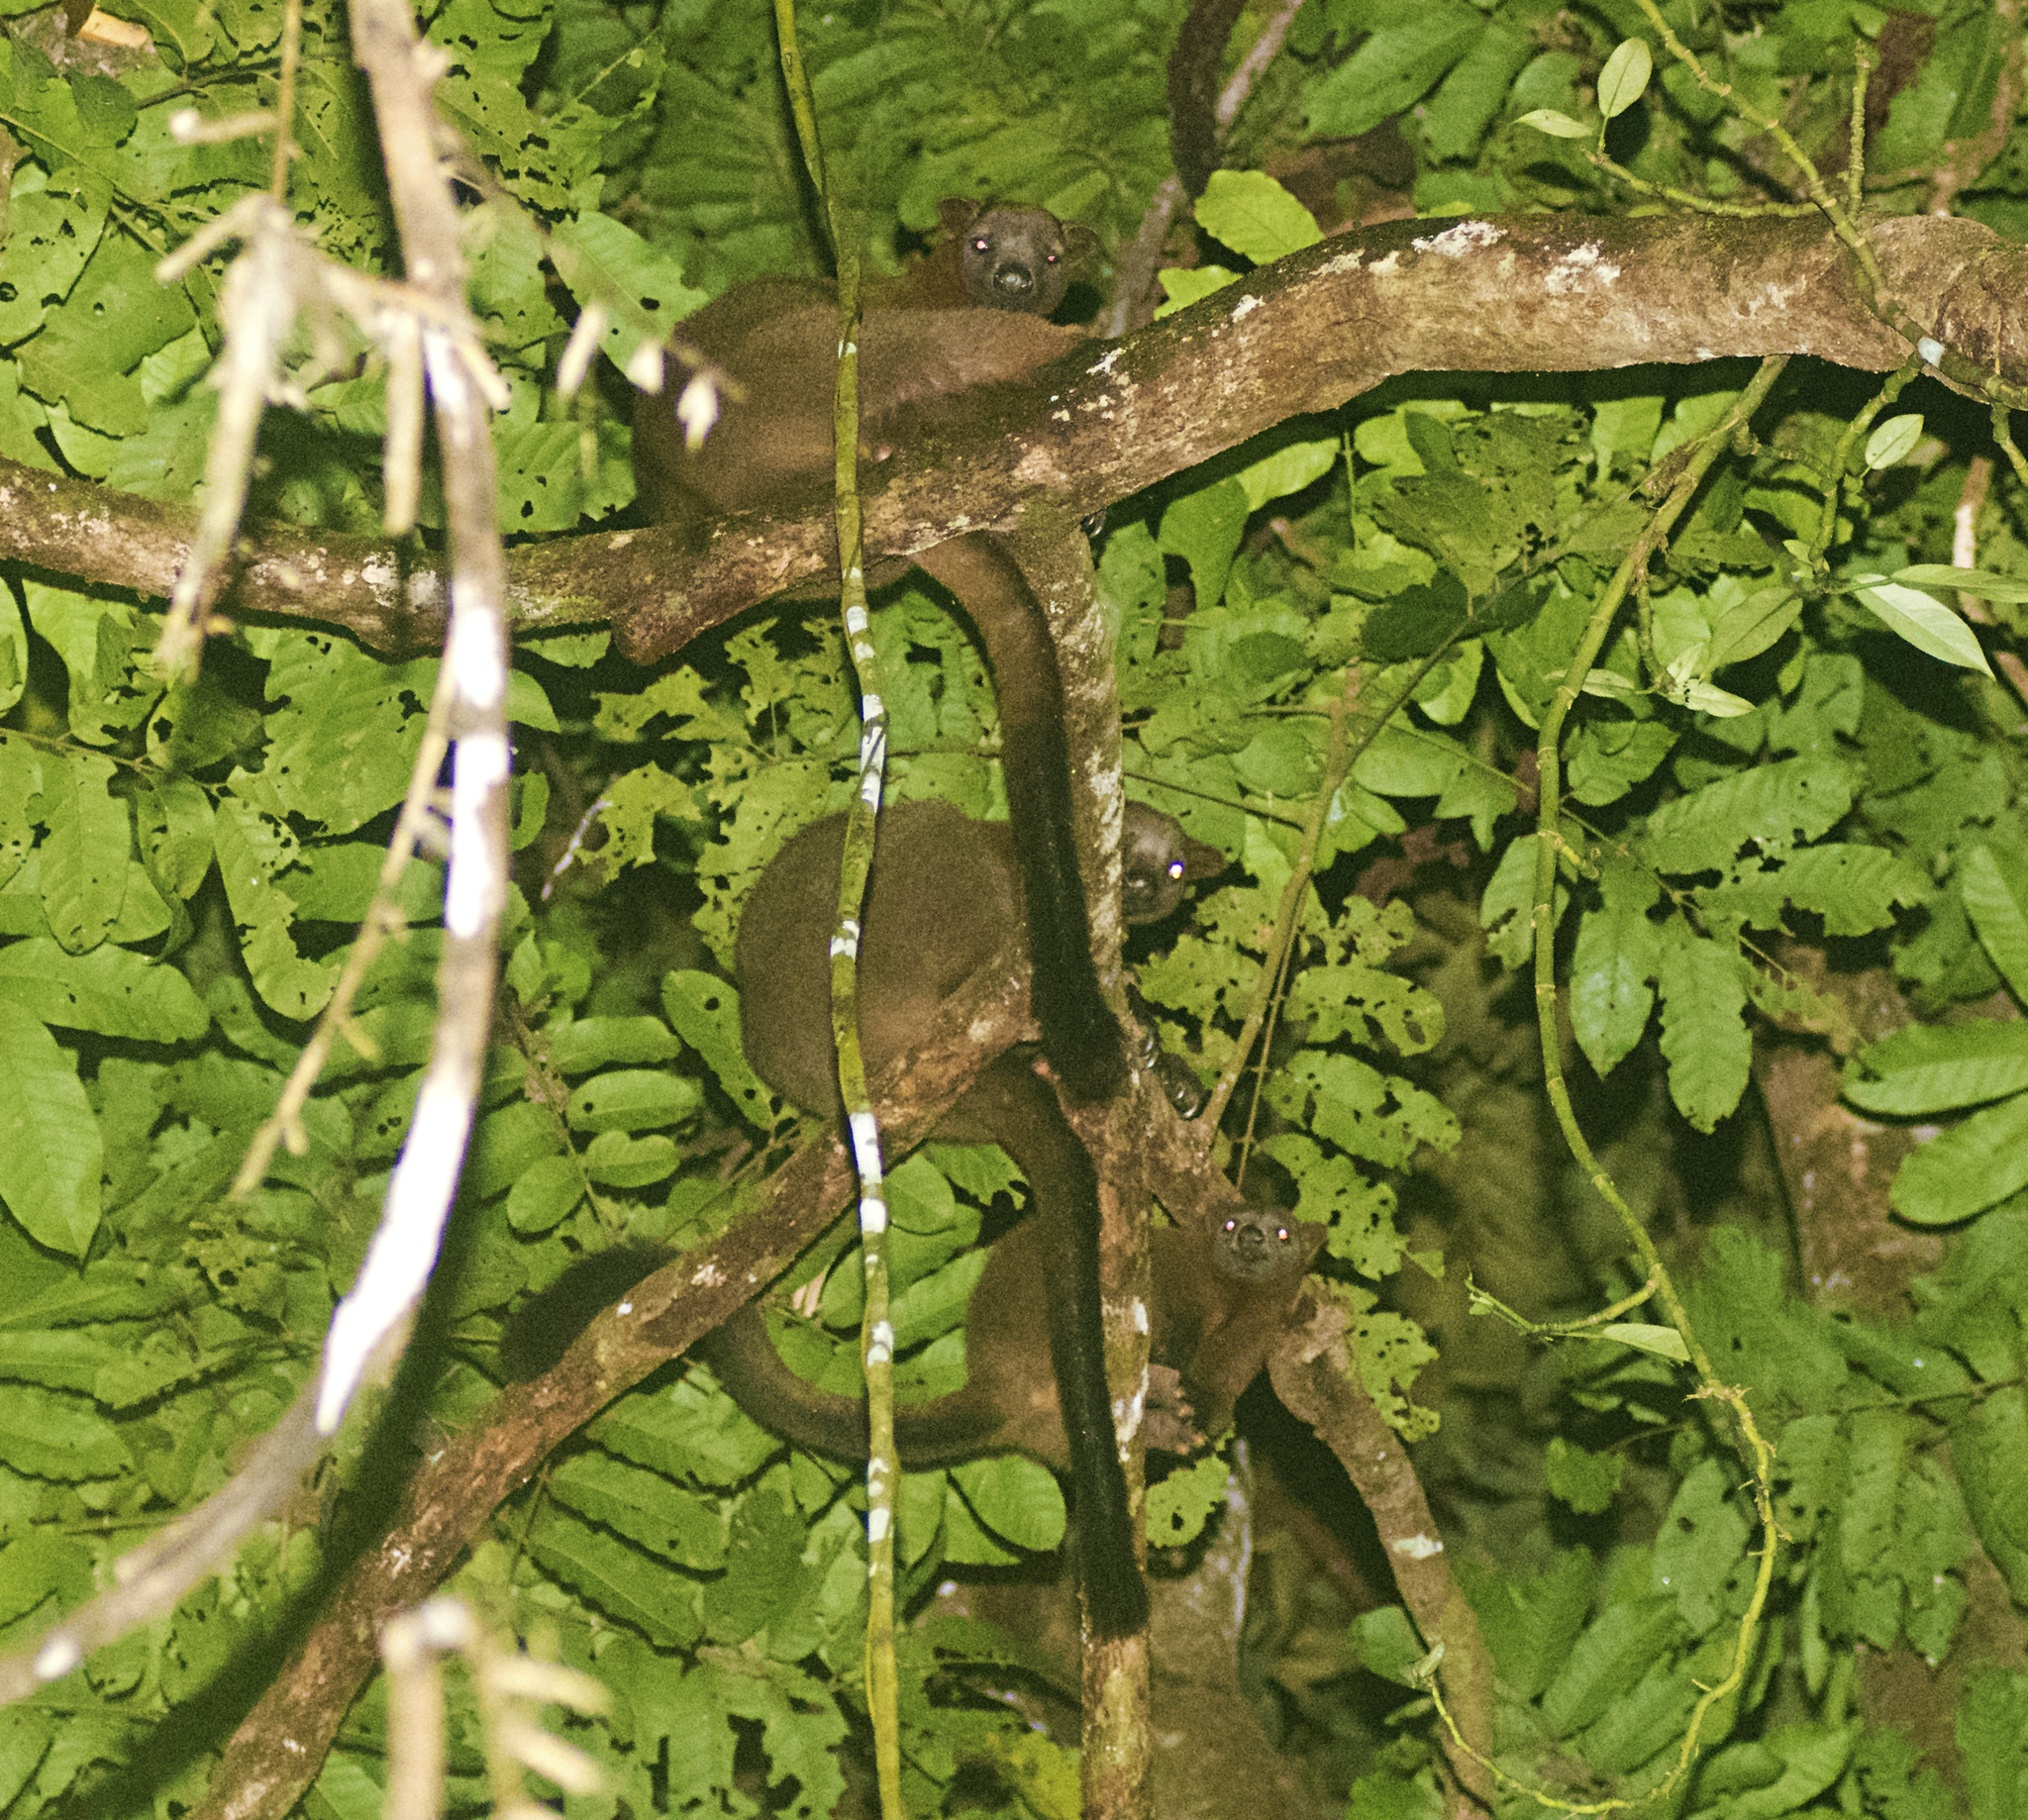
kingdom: Animalia
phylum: Chordata
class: Mammalia
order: Diprotodontia
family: Macropodidae
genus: Dendrolagus
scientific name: Dendrolagus bennettianus
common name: Bennett's tree-kangaroo
